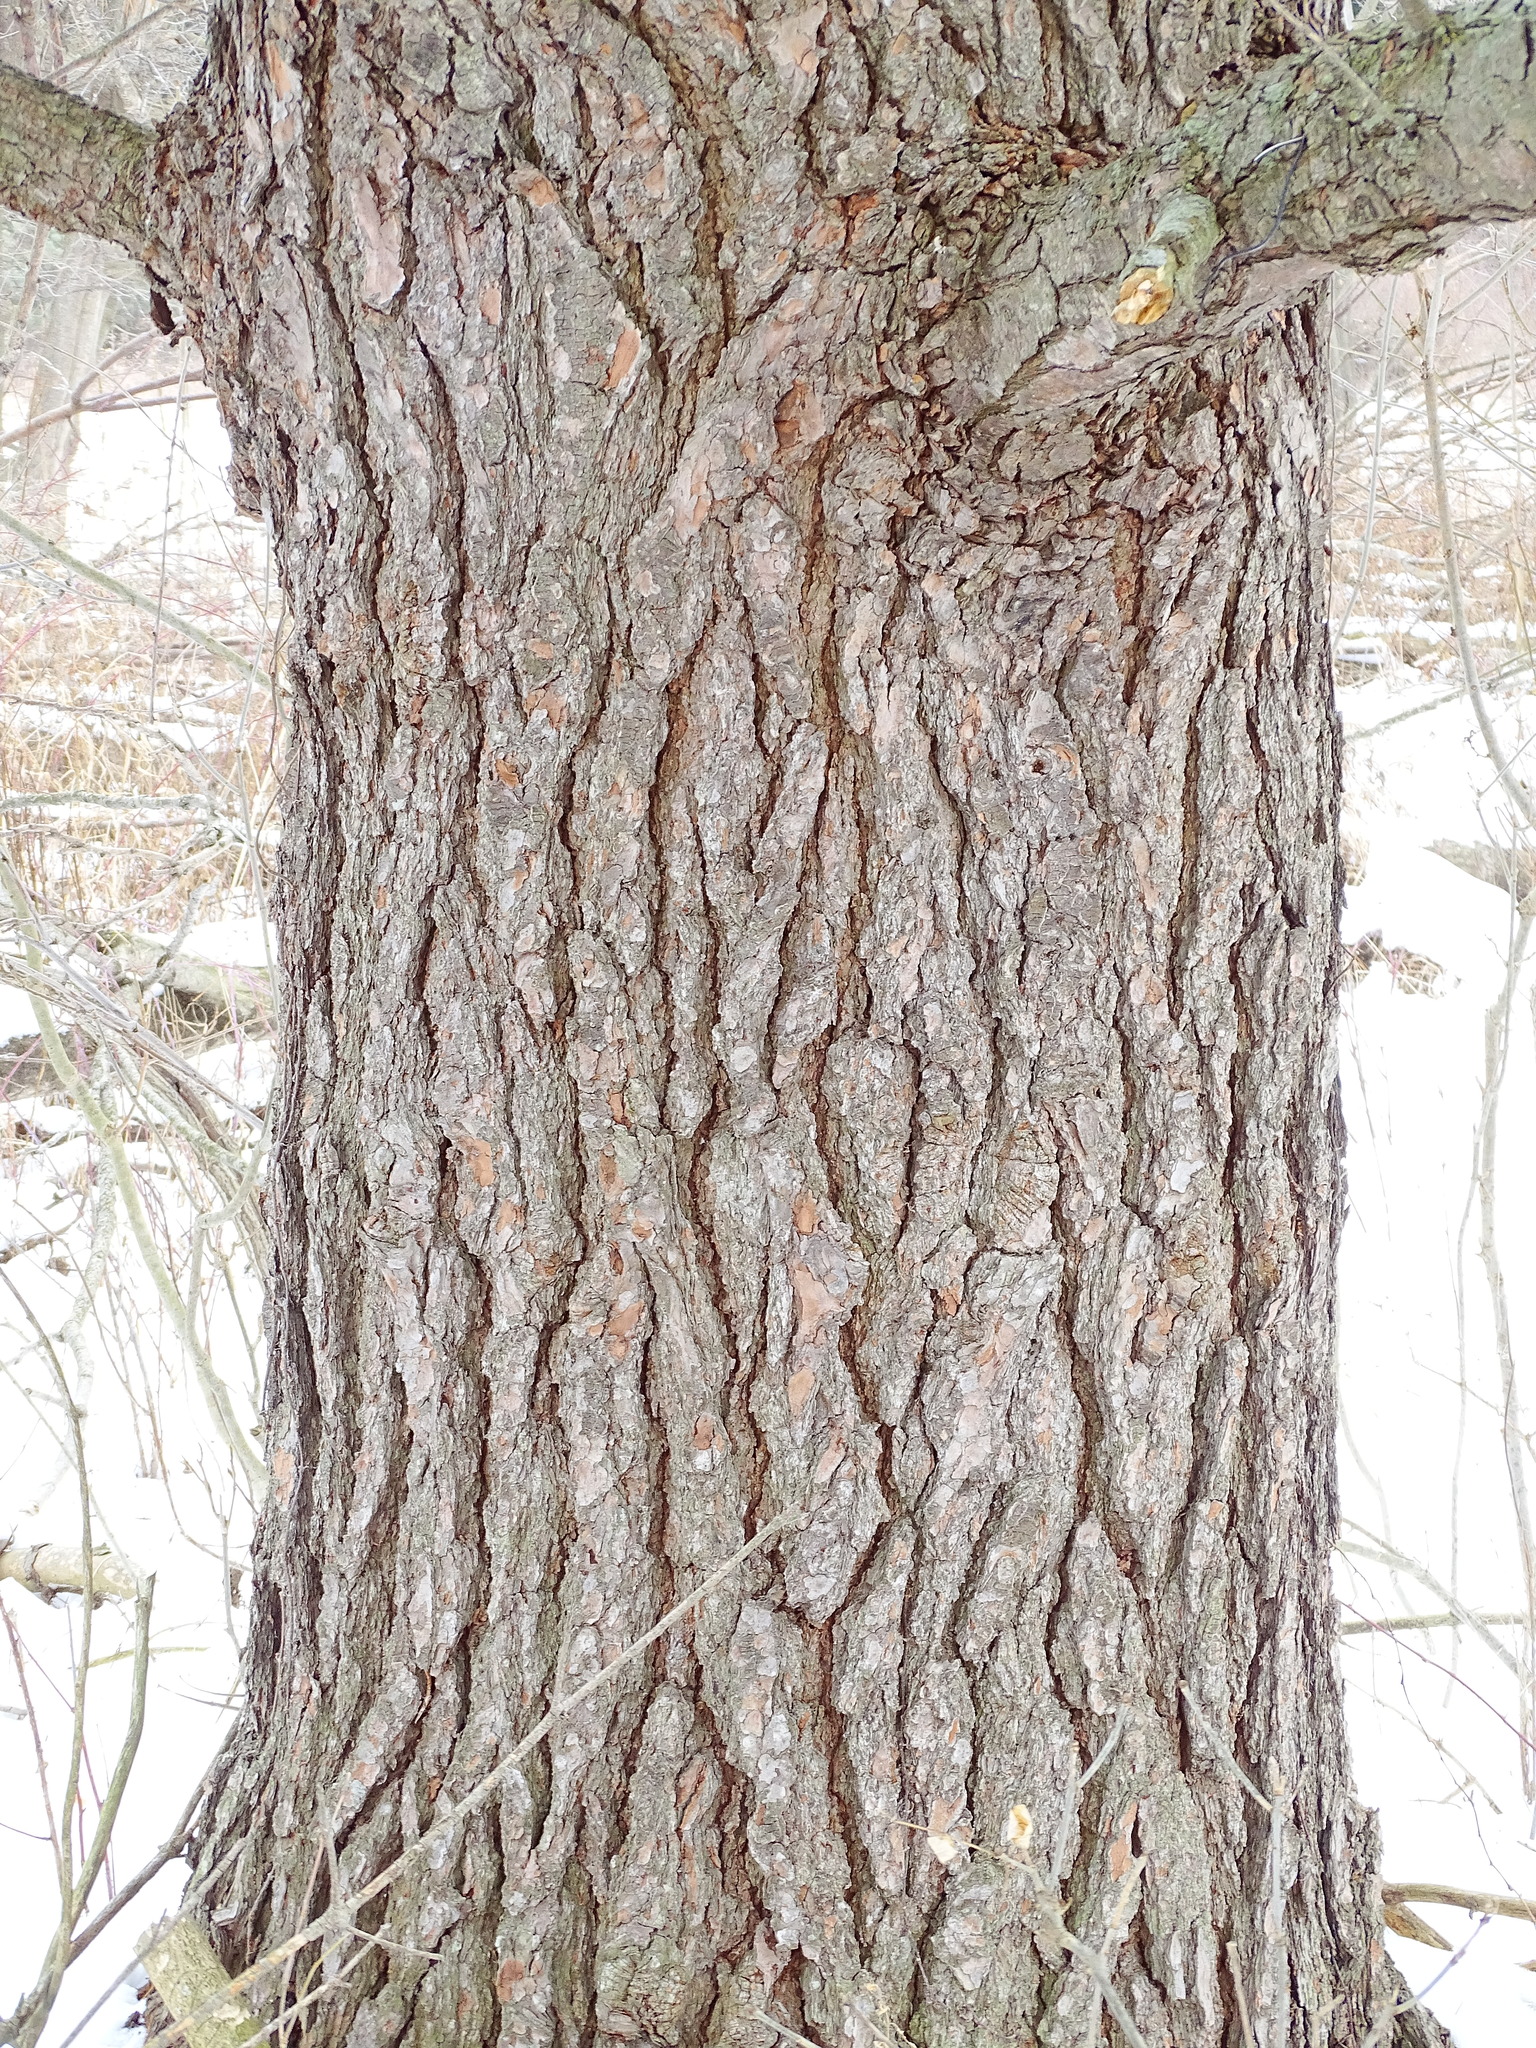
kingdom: Plantae
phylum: Tracheophyta
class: Pinopsida
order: Pinales
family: Pinaceae
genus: Pinus
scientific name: Pinus strobus
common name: Weymouth pine
